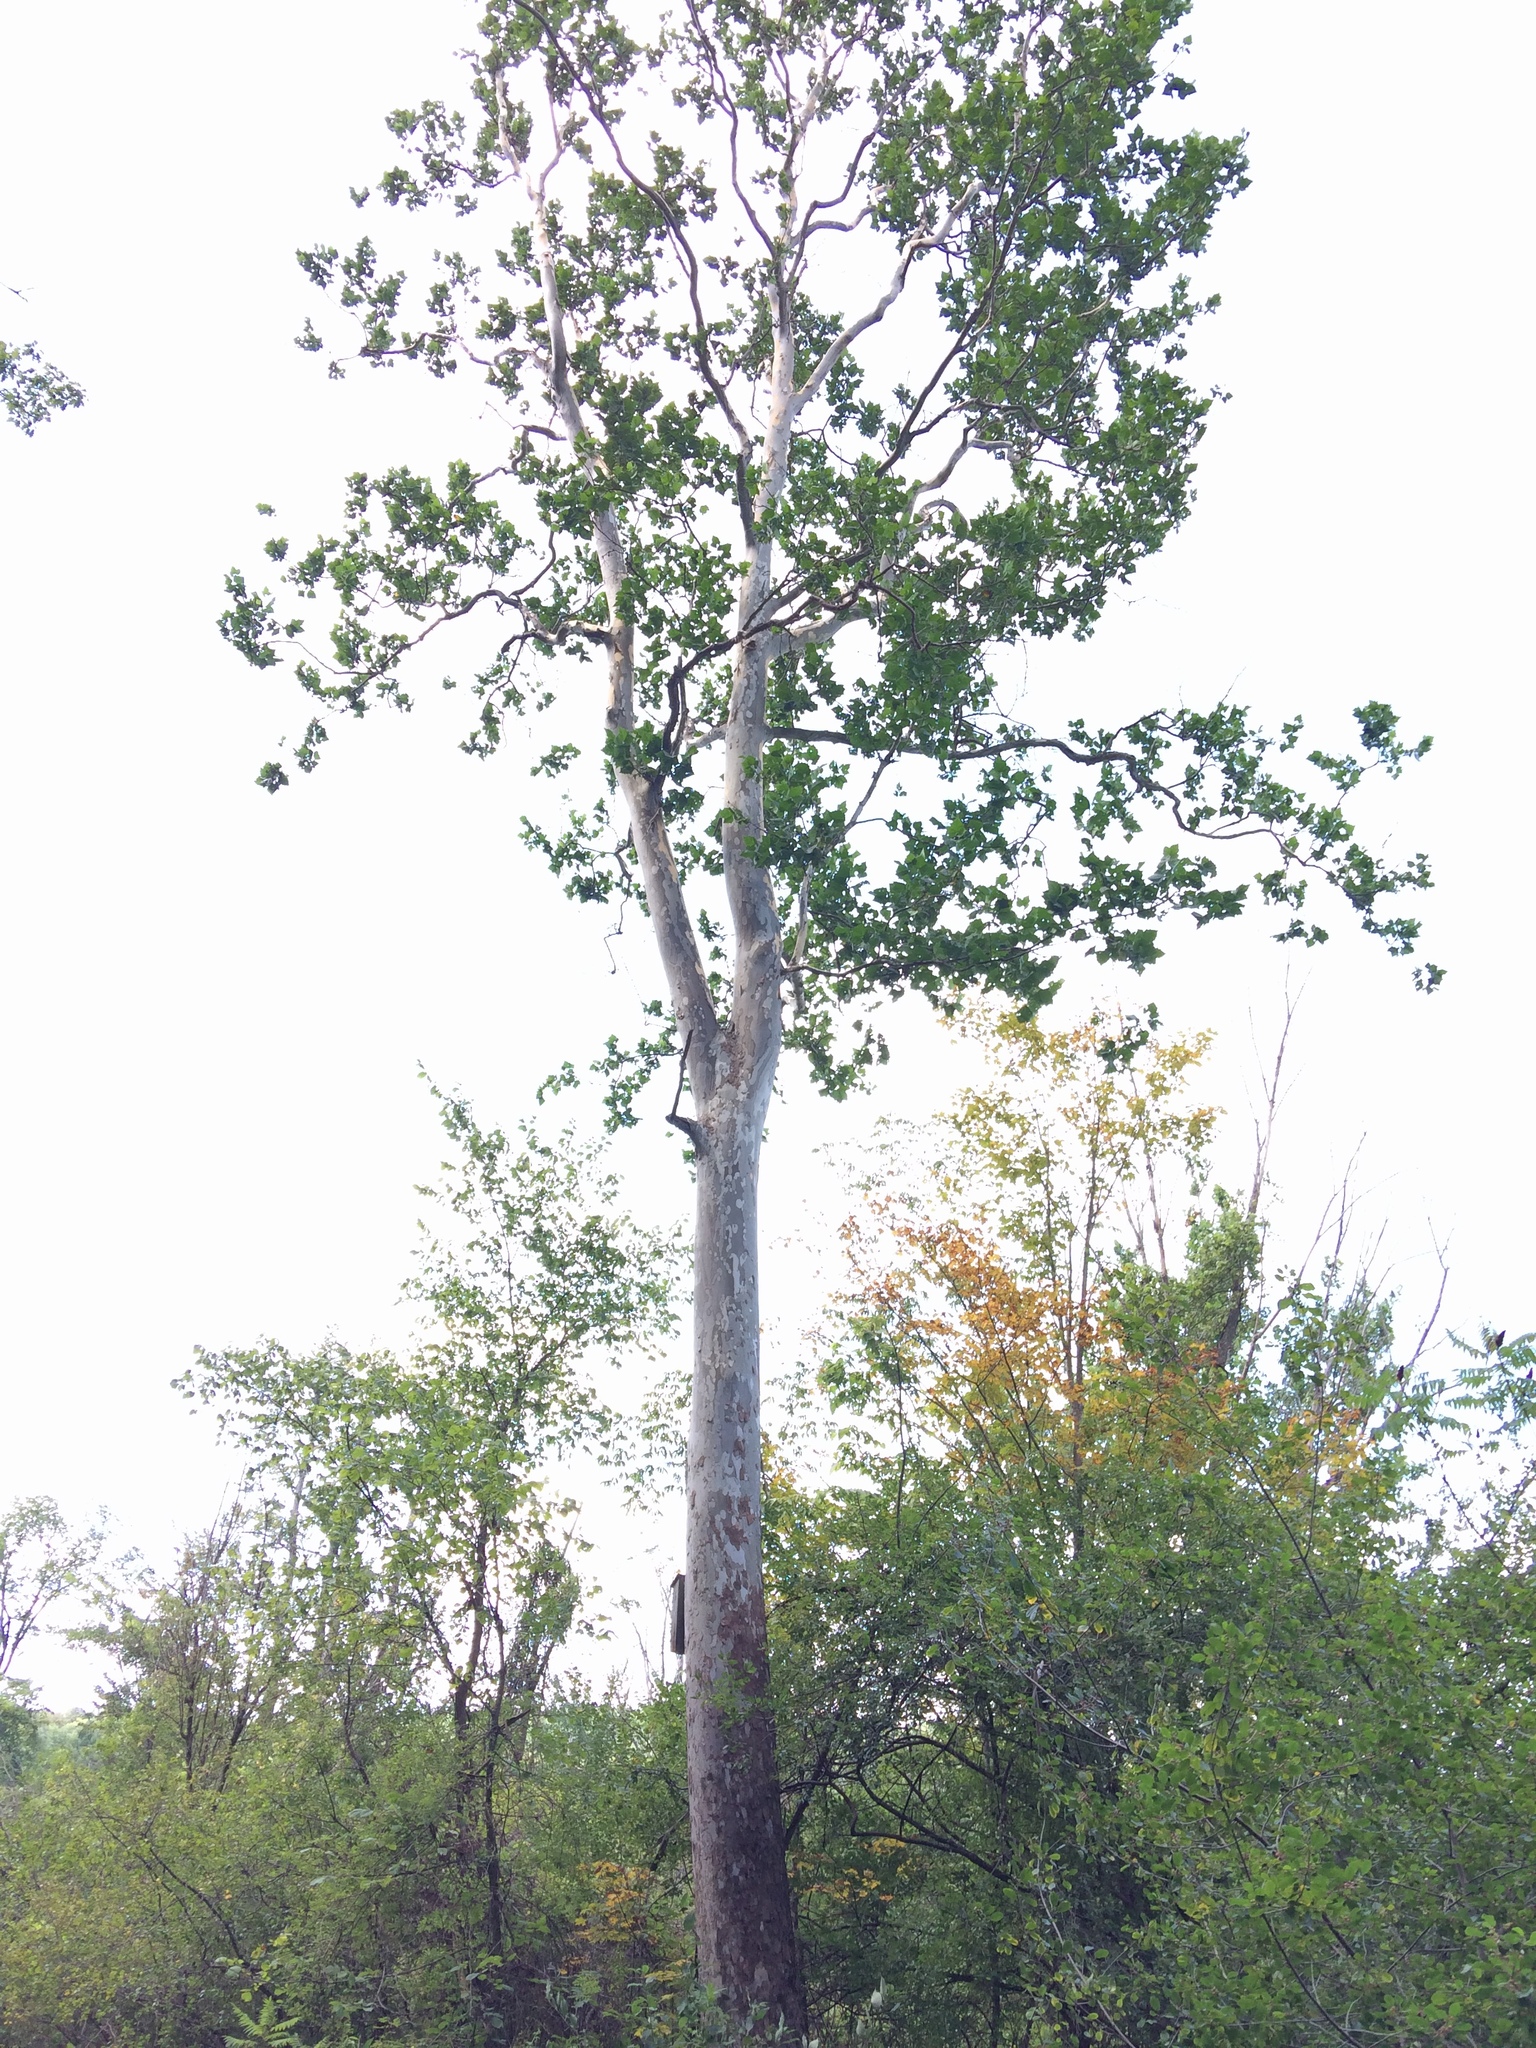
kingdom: Plantae
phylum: Tracheophyta
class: Magnoliopsida
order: Proteales
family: Platanaceae
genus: Platanus
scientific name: Platanus occidentalis
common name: American sycamore
